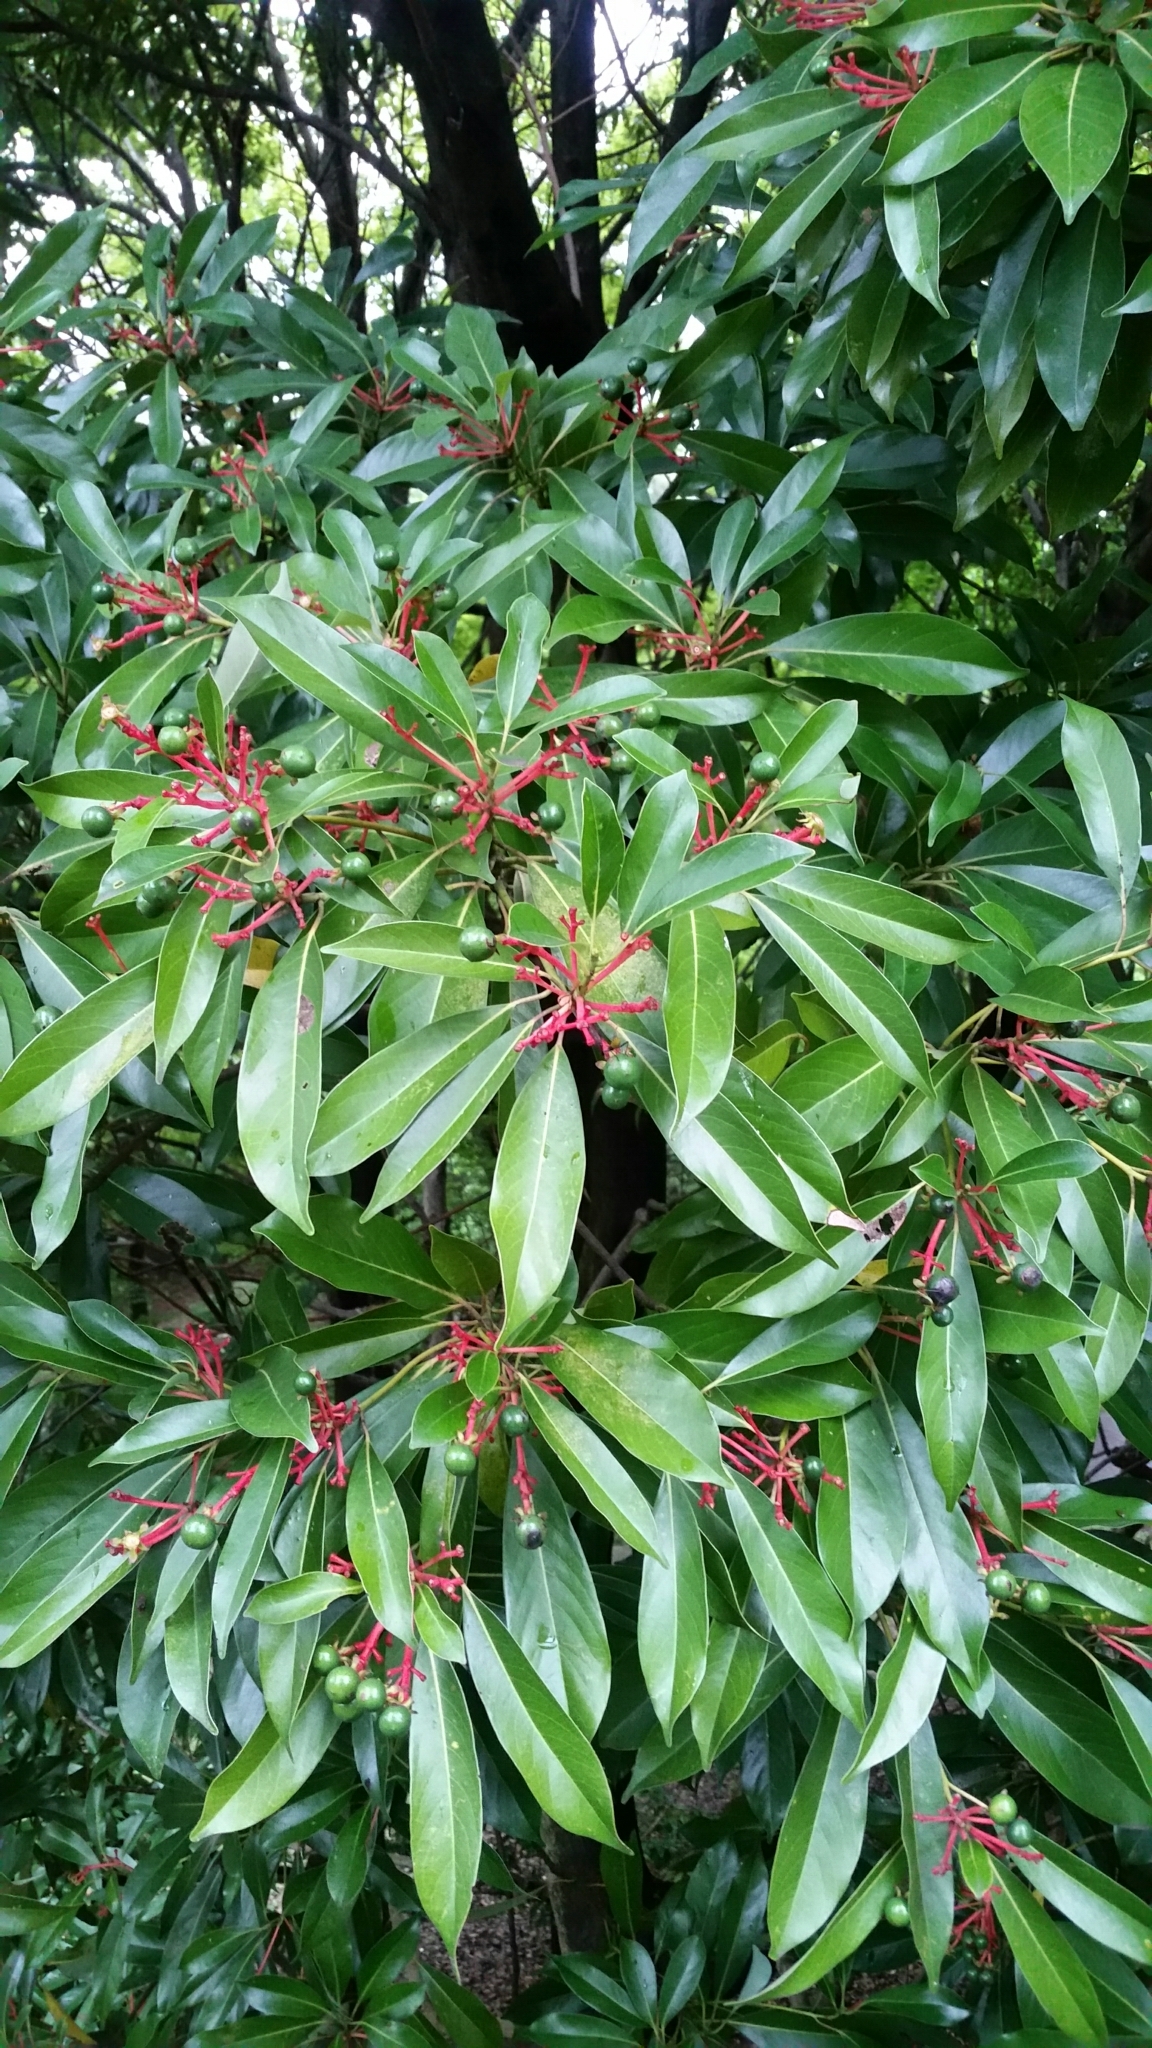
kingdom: Plantae
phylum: Tracheophyta
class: Magnoliopsida
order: Laurales
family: Lauraceae
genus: Machilus
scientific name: Machilus thunbergii
